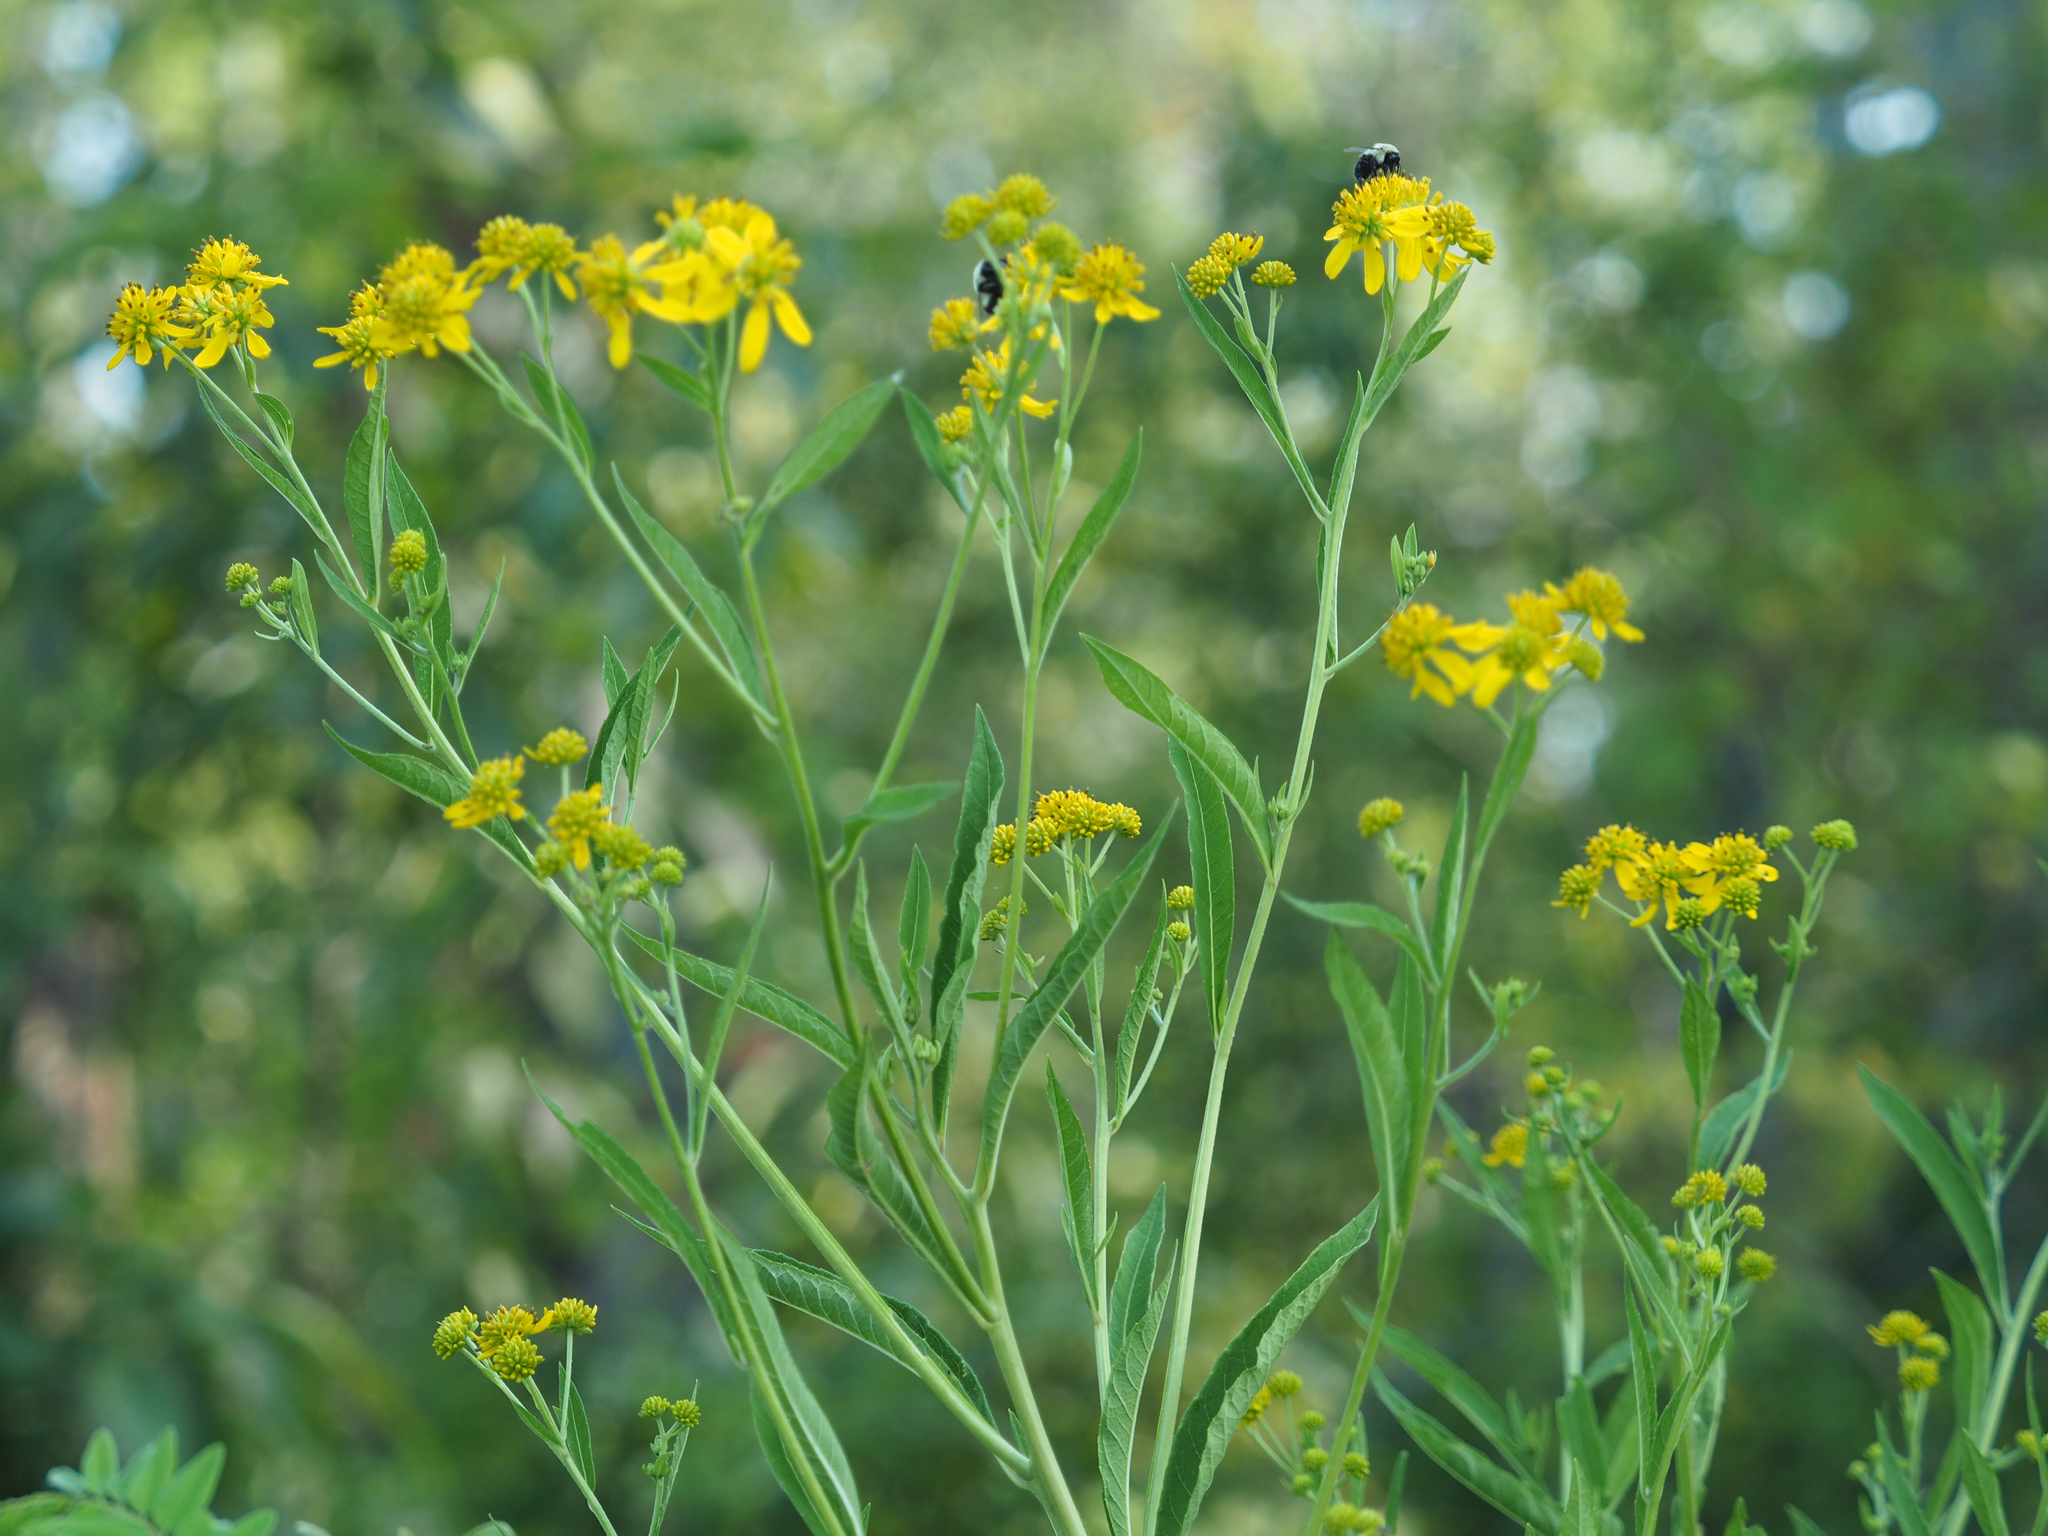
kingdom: Plantae
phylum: Tracheophyta
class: Magnoliopsida
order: Asterales
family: Asteraceae
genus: Verbesina
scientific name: Verbesina alternifolia
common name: Wingstem
